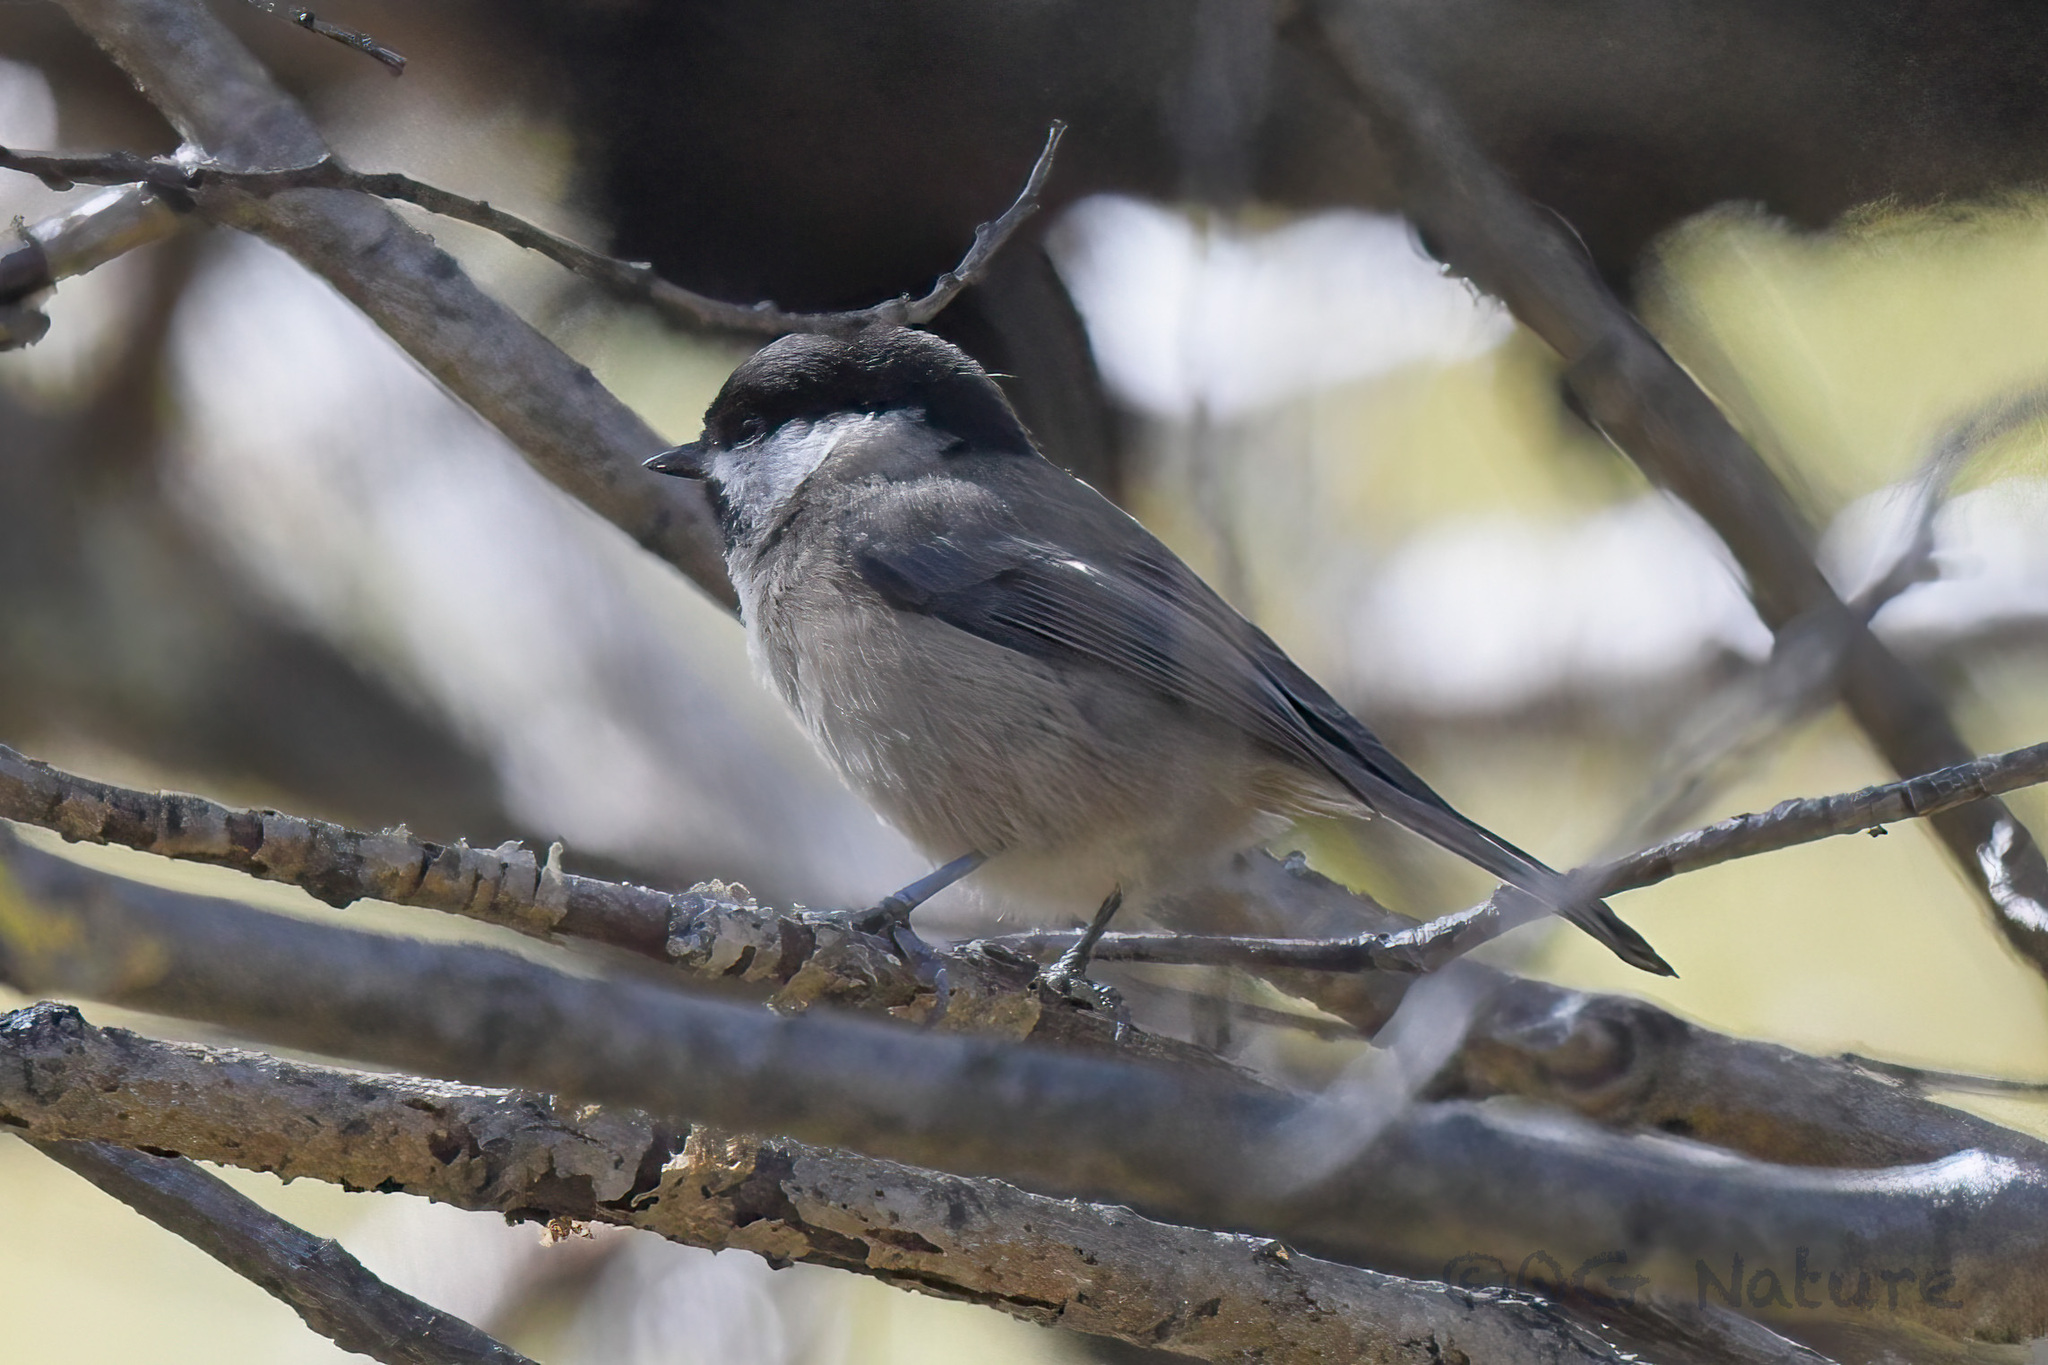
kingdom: Animalia
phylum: Chordata
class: Aves
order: Passeriformes
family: Paridae
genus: Poecile
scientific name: Poecile weigoldicus
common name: Sichuan tit
